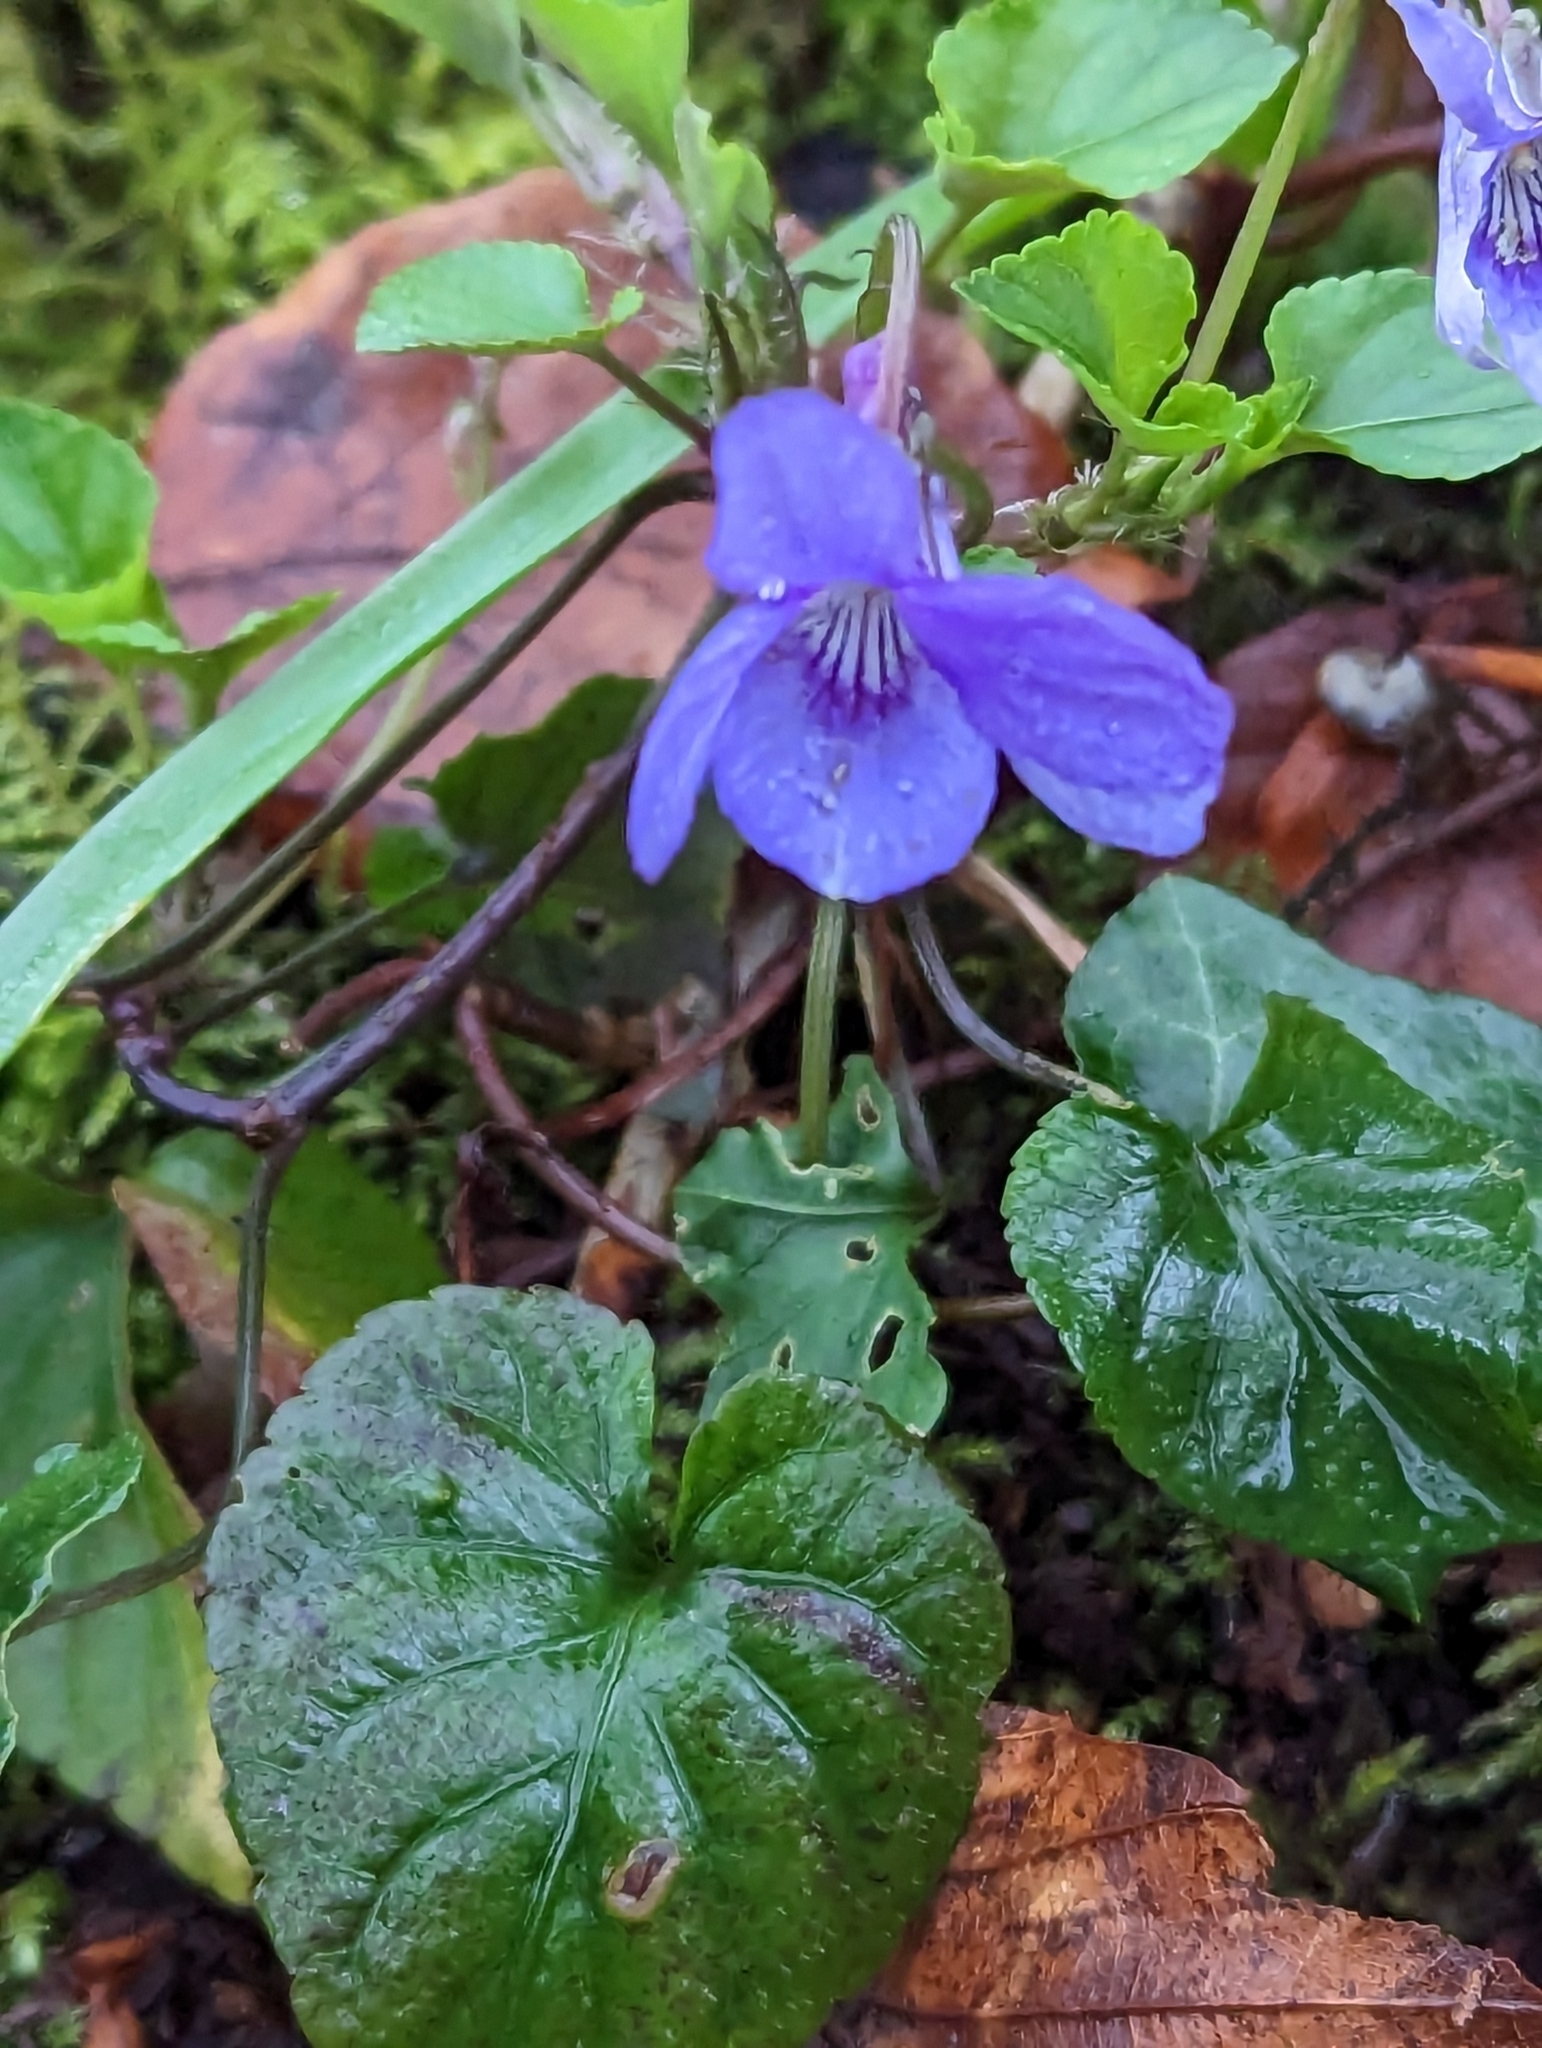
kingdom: Plantae
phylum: Tracheophyta
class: Magnoliopsida
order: Malpighiales
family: Violaceae
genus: Viola
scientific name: Viola reichenbachiana
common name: Early dog-violet
